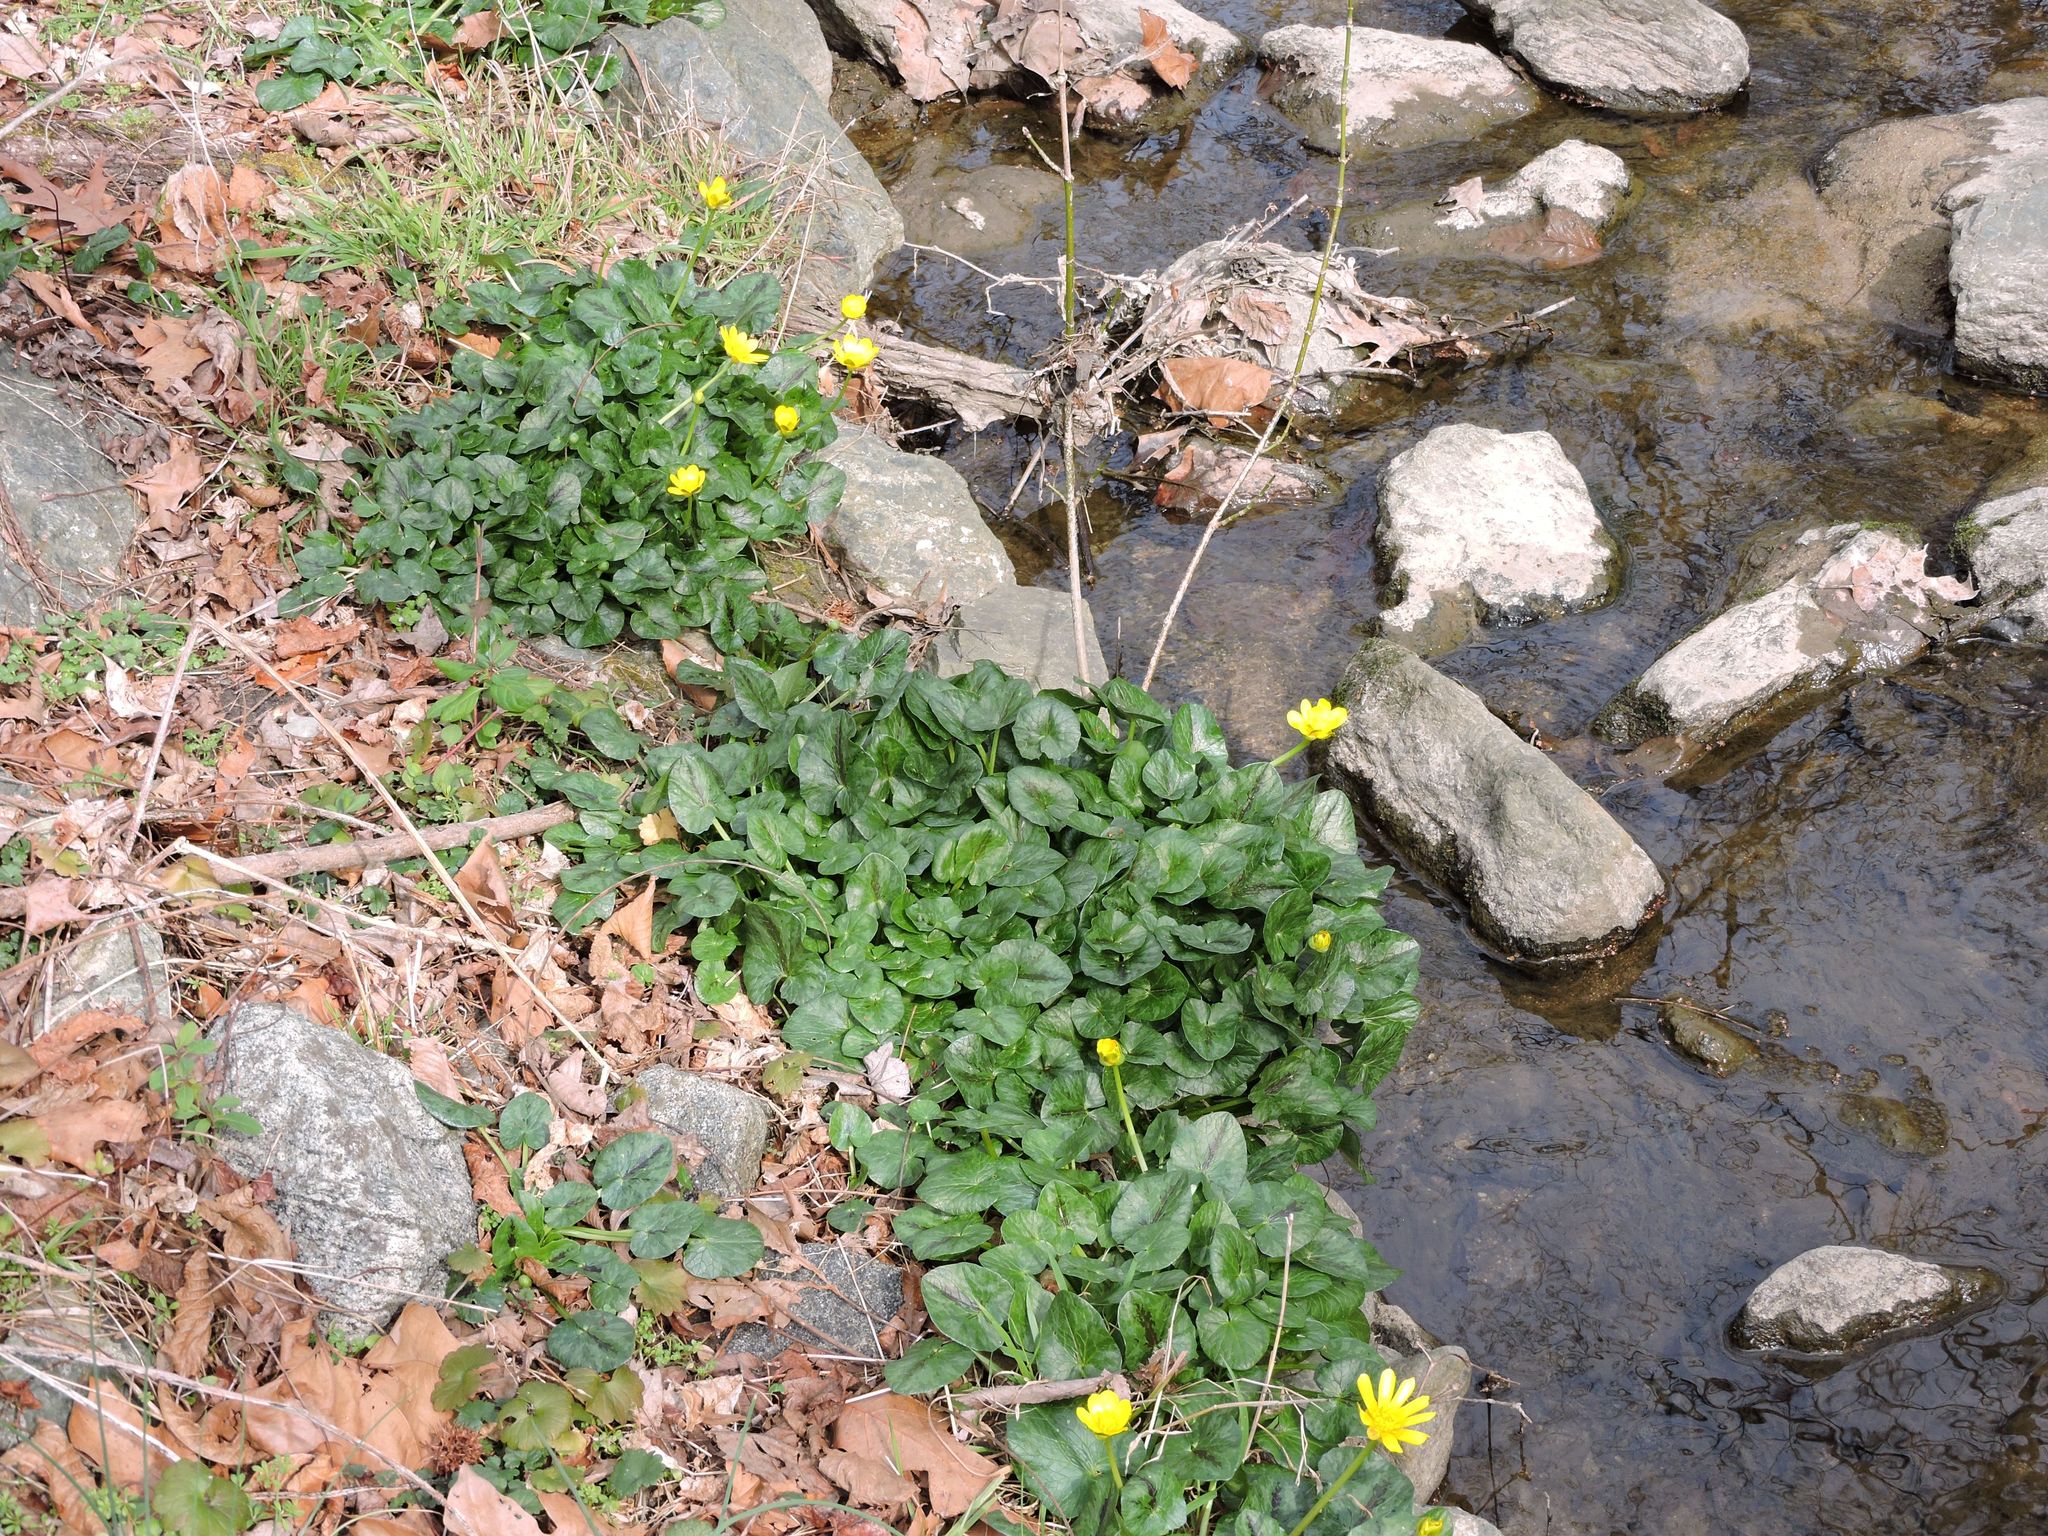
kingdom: Plantae
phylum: Tracheophyta
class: Magnoliopsida
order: Ranunculales
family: Ranunculaceae
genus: Ficaria
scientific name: Ficaria verna
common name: Lesser celandine
